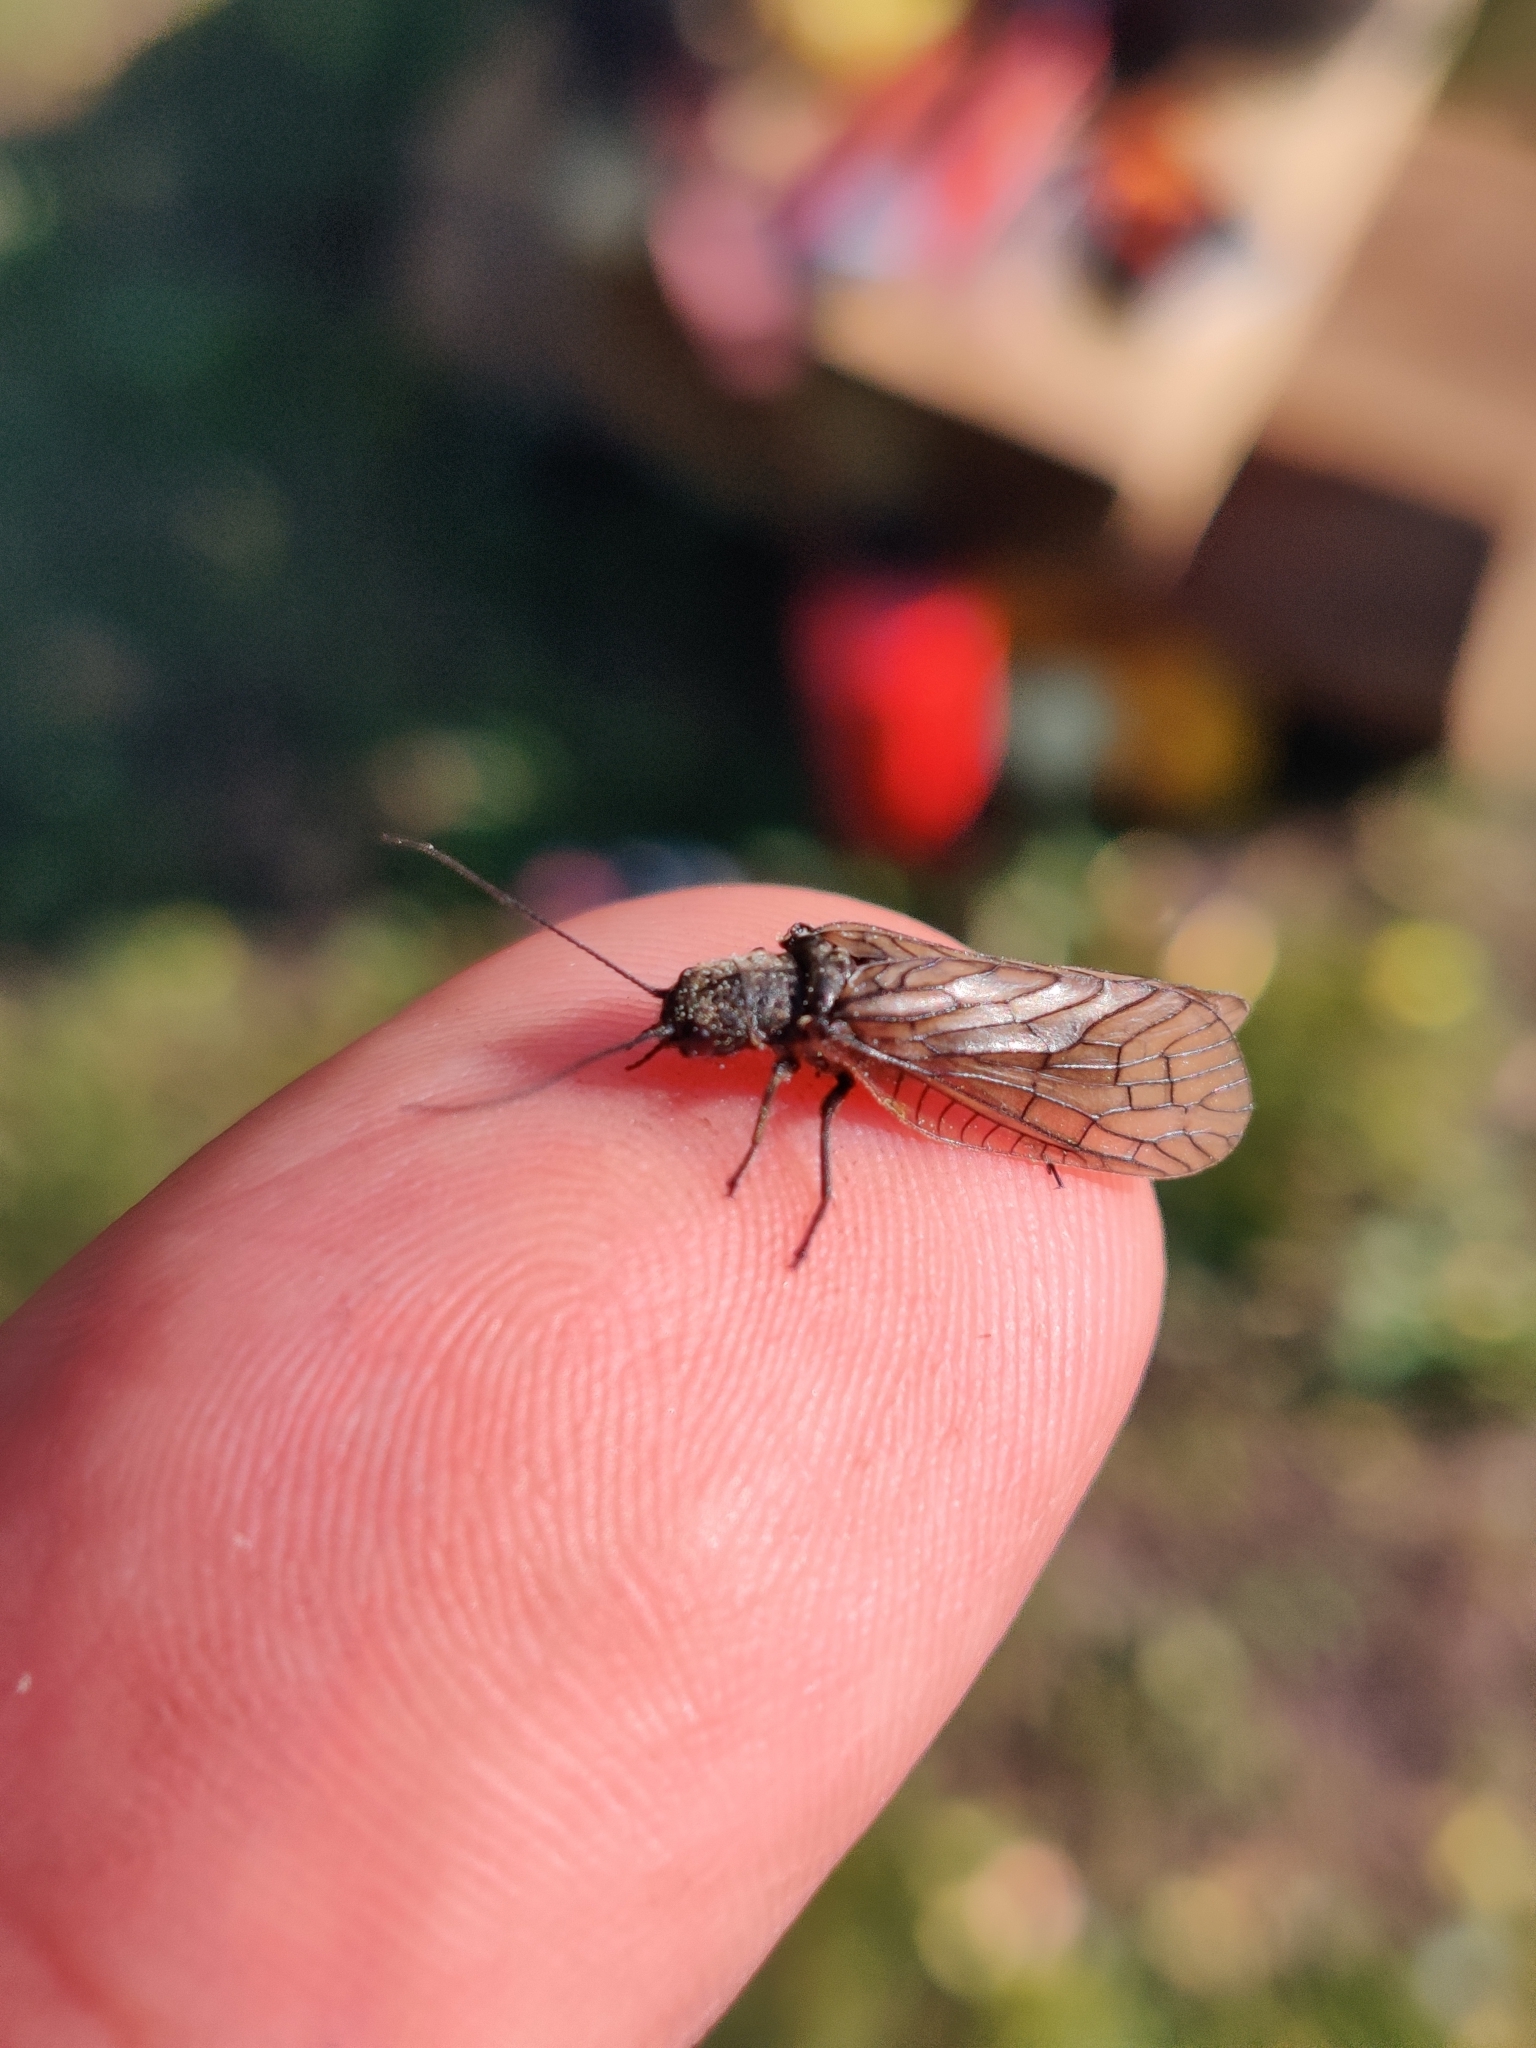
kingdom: Animalia
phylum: Arthropoda
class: Insecta
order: Megaloptera
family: Sialidae
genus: Sialis
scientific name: Sialis
